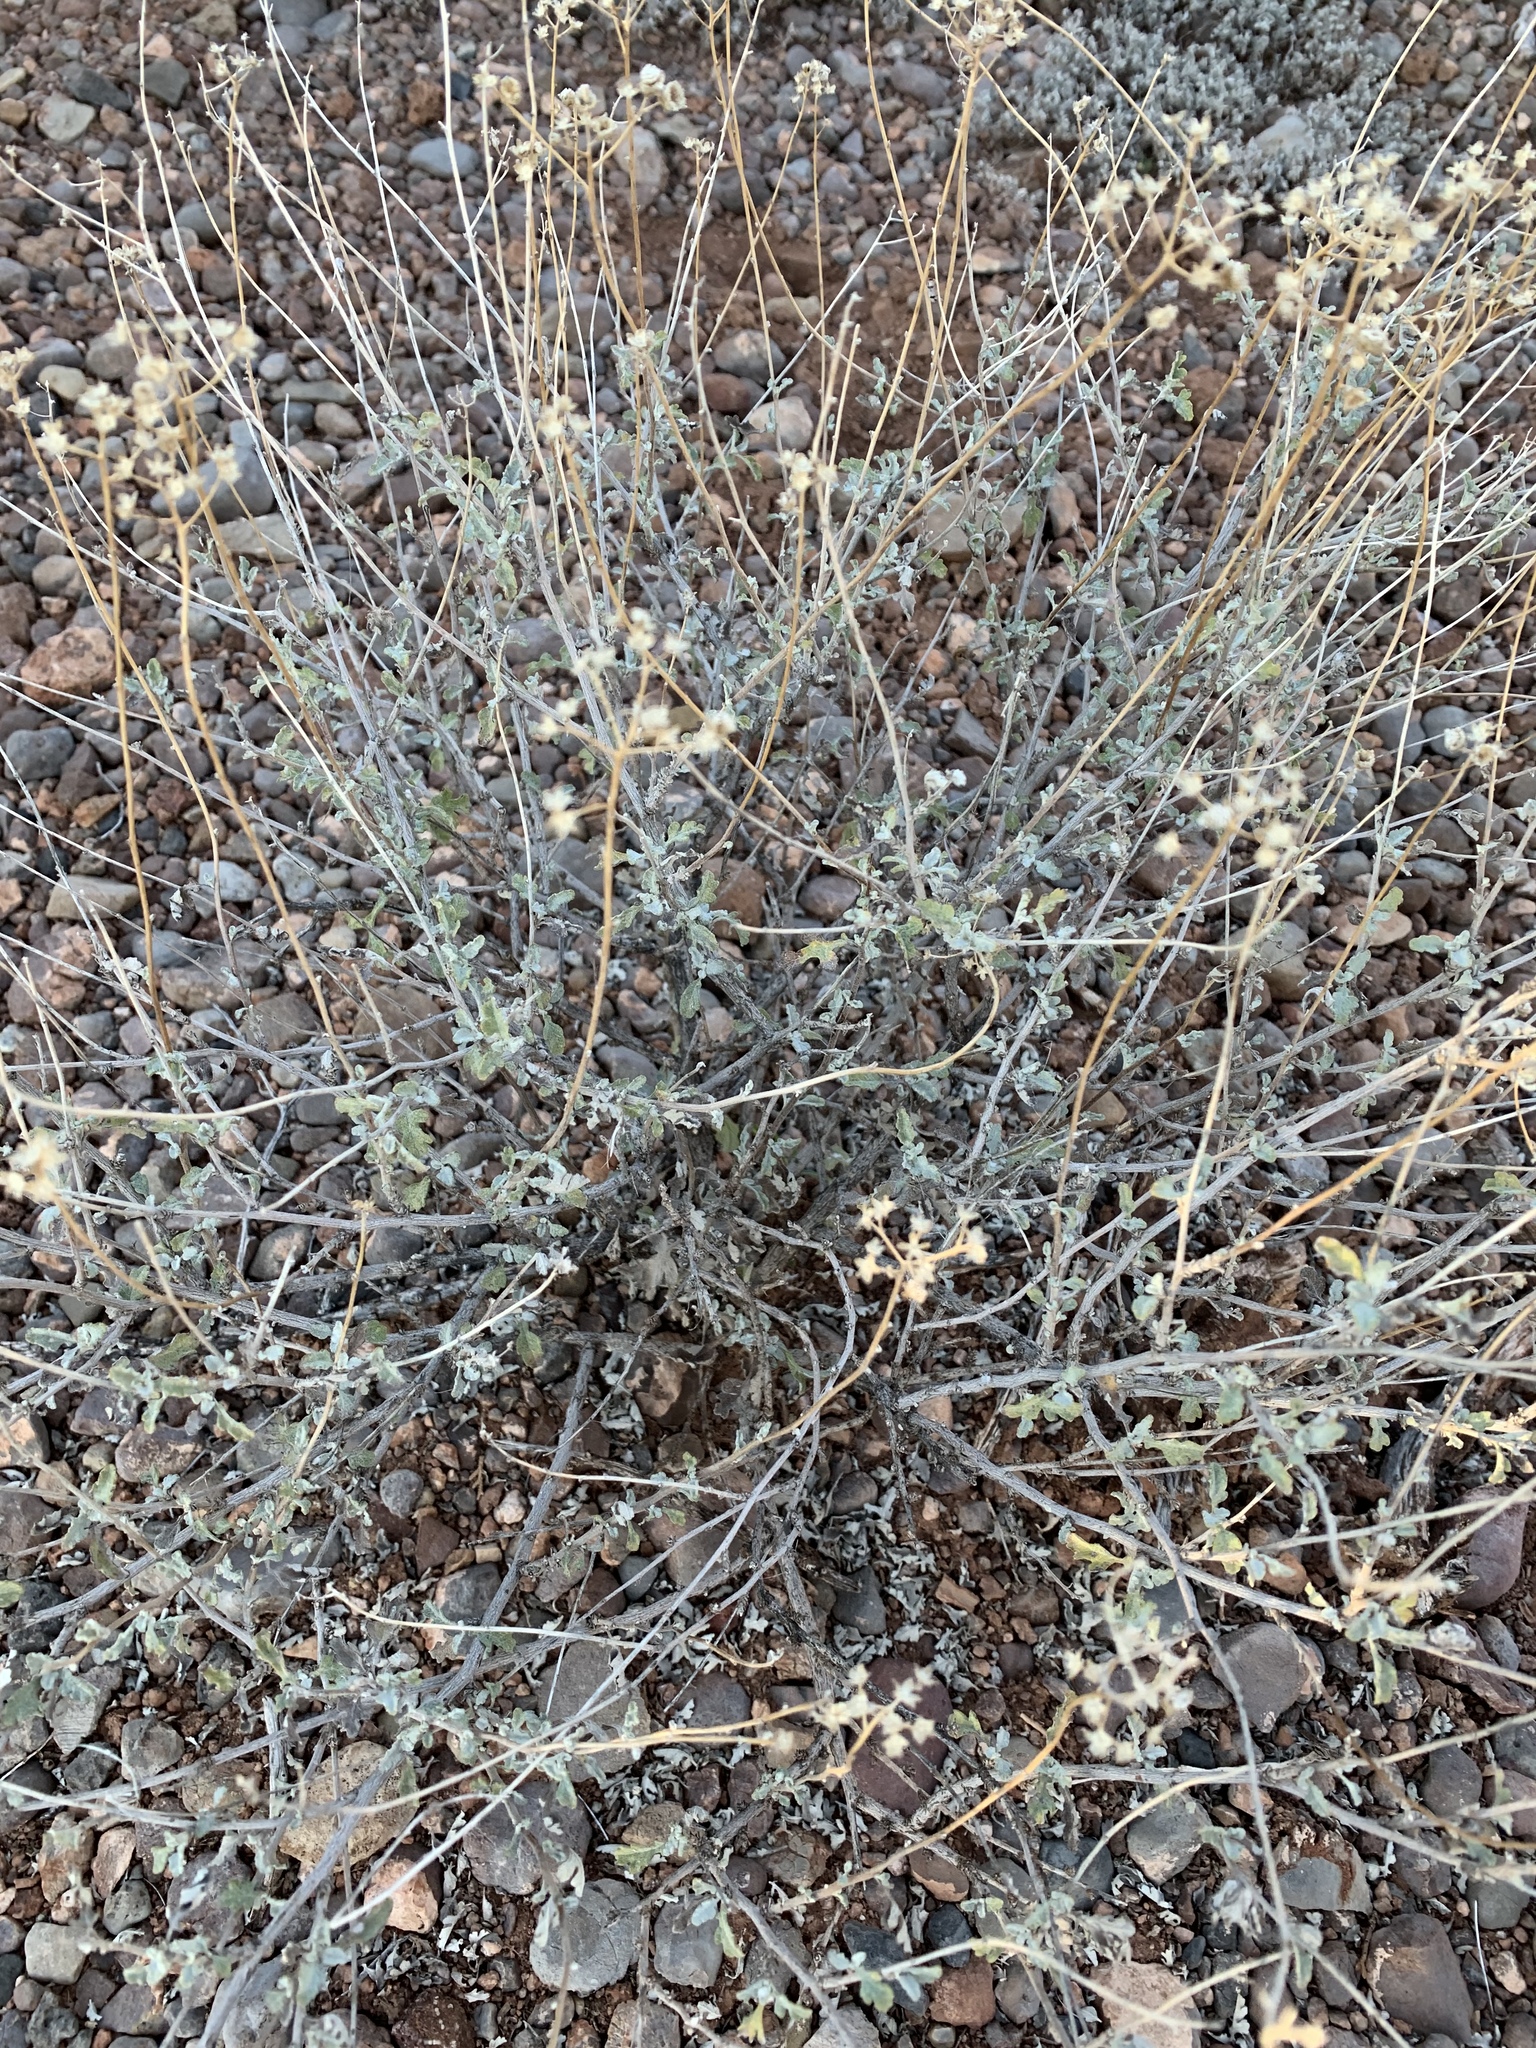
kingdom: Plantae
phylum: Tracheophyta
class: Magnoliopsida
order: Asterales
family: Asteraceae
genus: Parthenium
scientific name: Parthenium incanum
